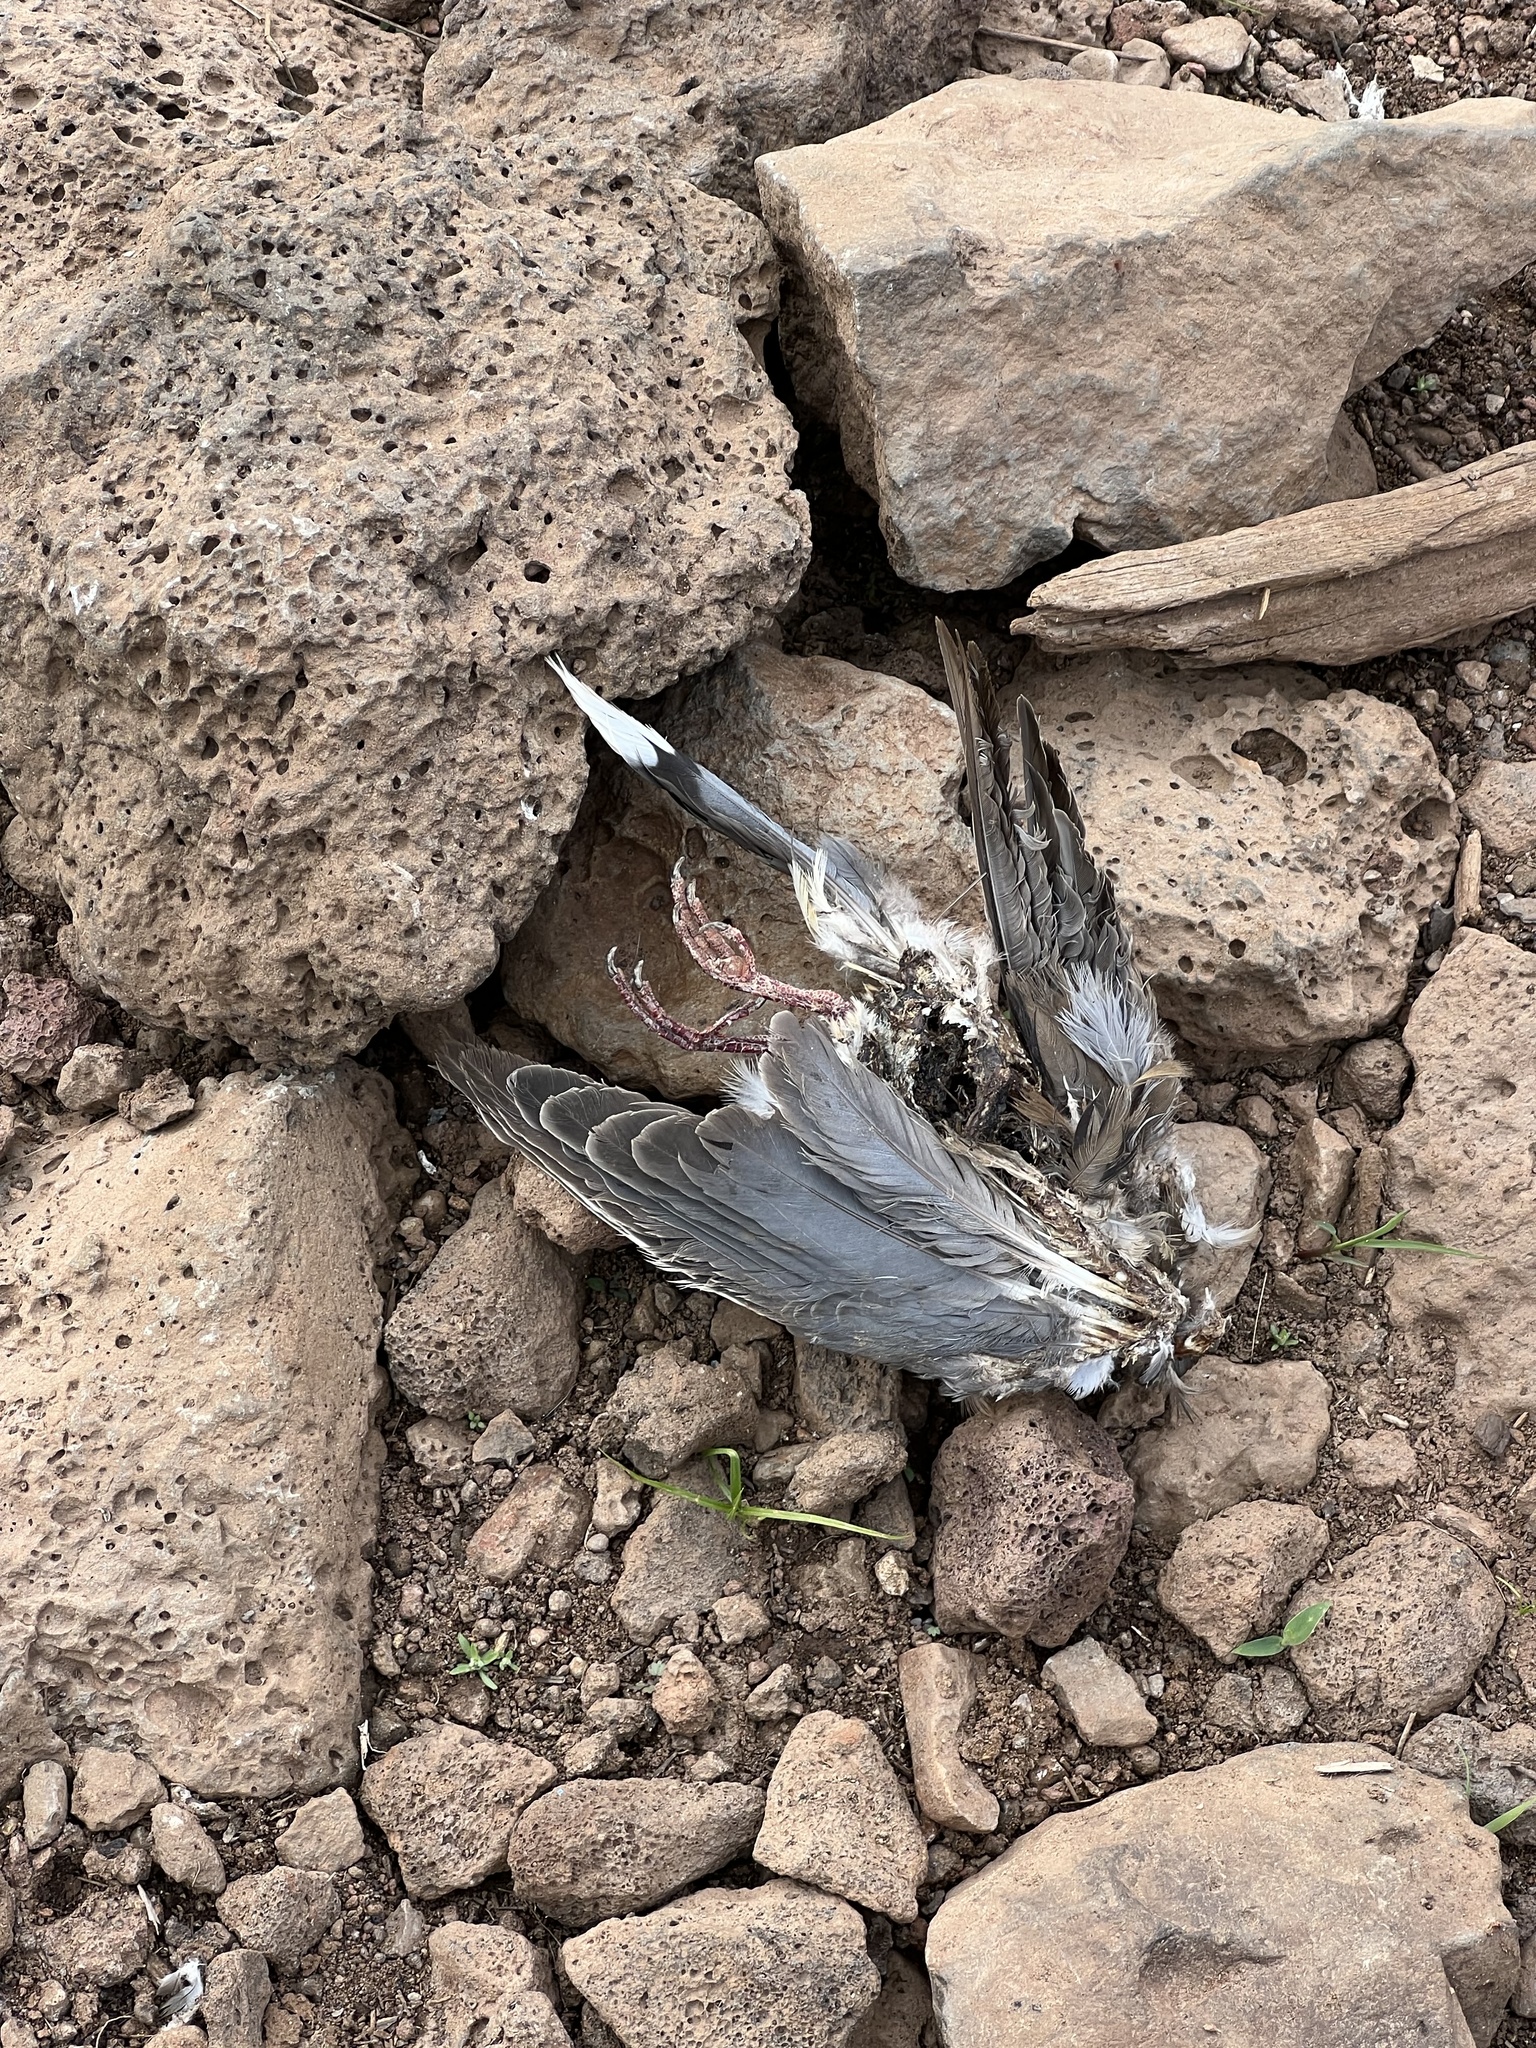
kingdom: Animalia
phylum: Chordata
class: Aves
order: Columbiformes
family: Columbidae
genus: Zenaida
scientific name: Zenaida macroura
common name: Mourning dove
